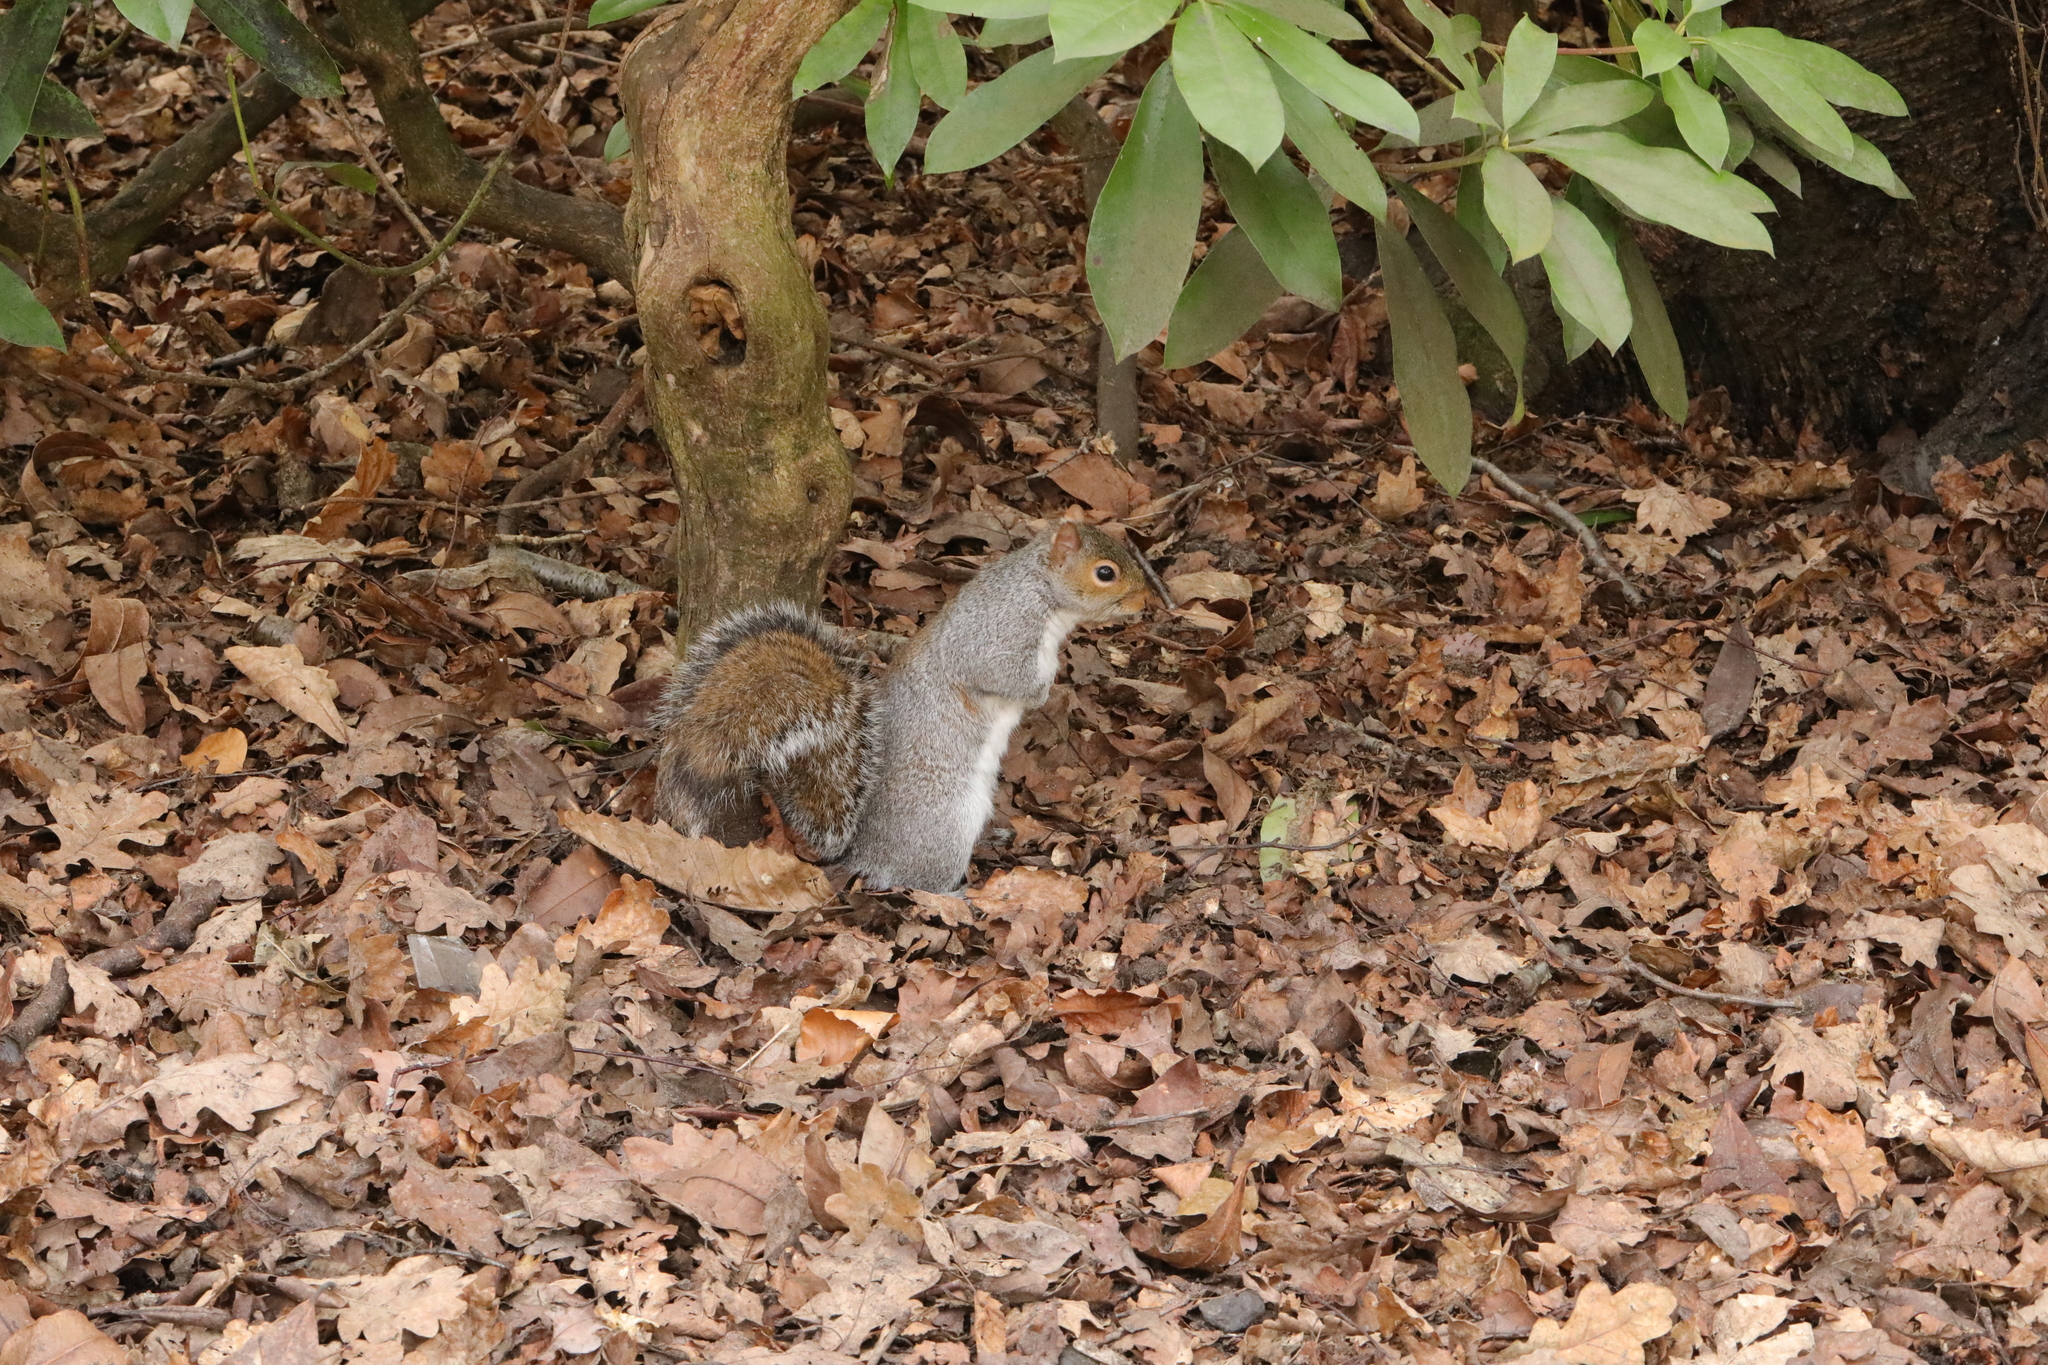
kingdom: Animalia
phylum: Chordata
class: Mammalia
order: Rodentia
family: Sciuridae
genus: Sciurus
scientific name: Sciurus carolinensis
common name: Eastern gray squirrel
